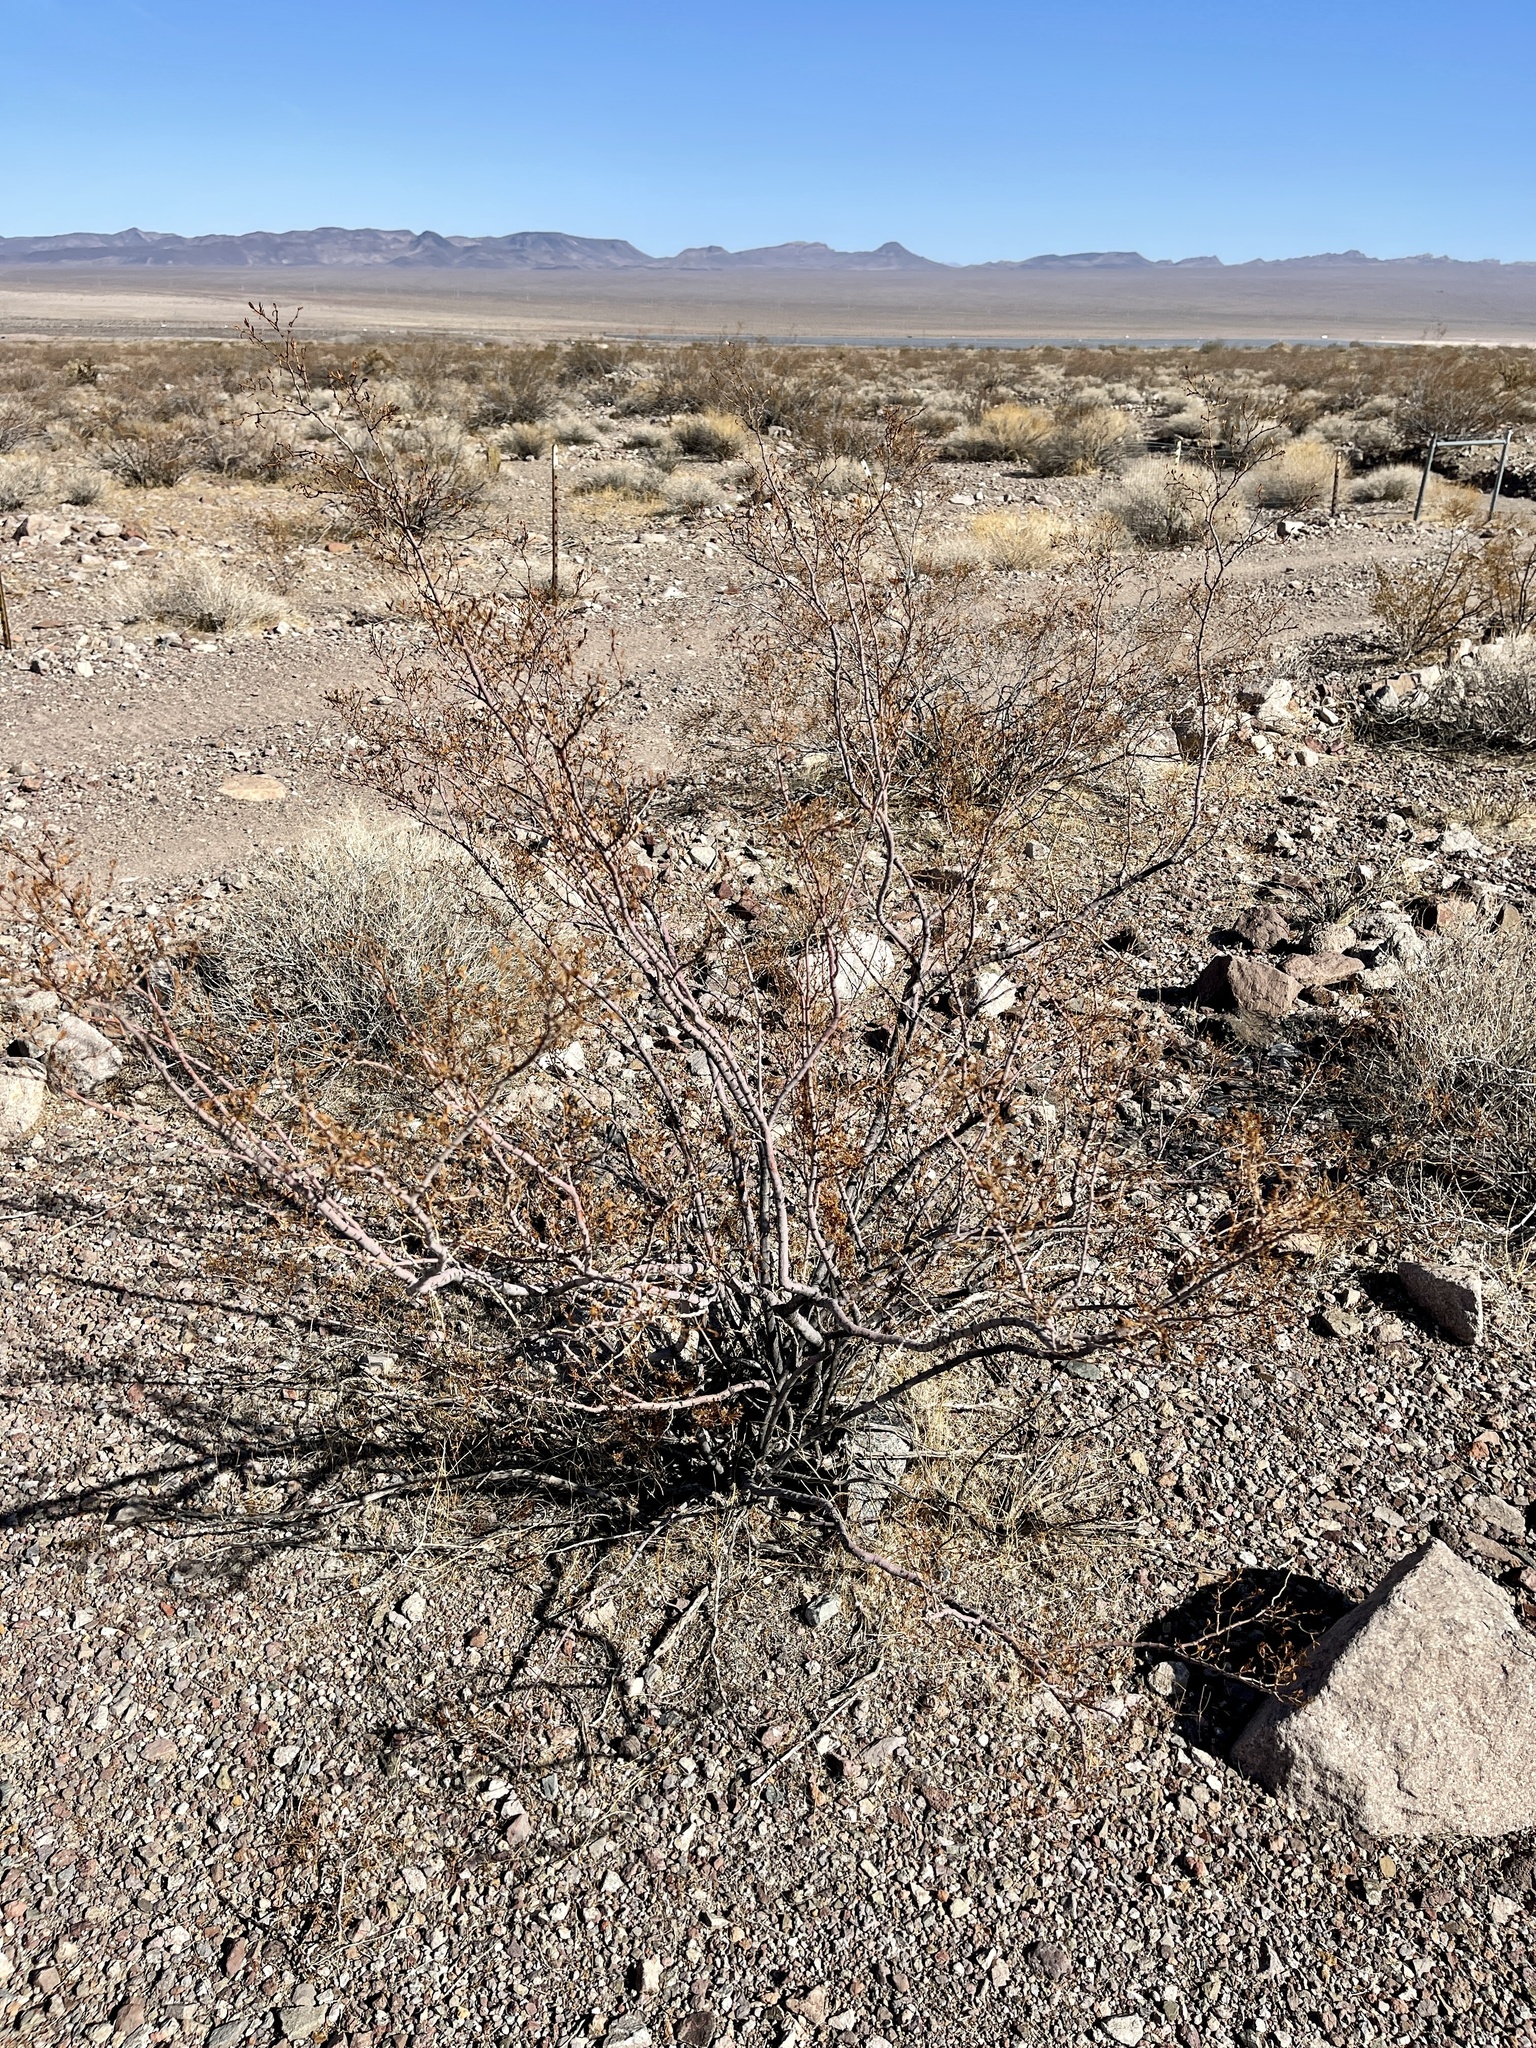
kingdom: Plantae
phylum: Tracheophyta
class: Magnoliopsida
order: Zygophyllales
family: Zygophyllaceae
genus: Larrea
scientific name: Larrea tridentata
